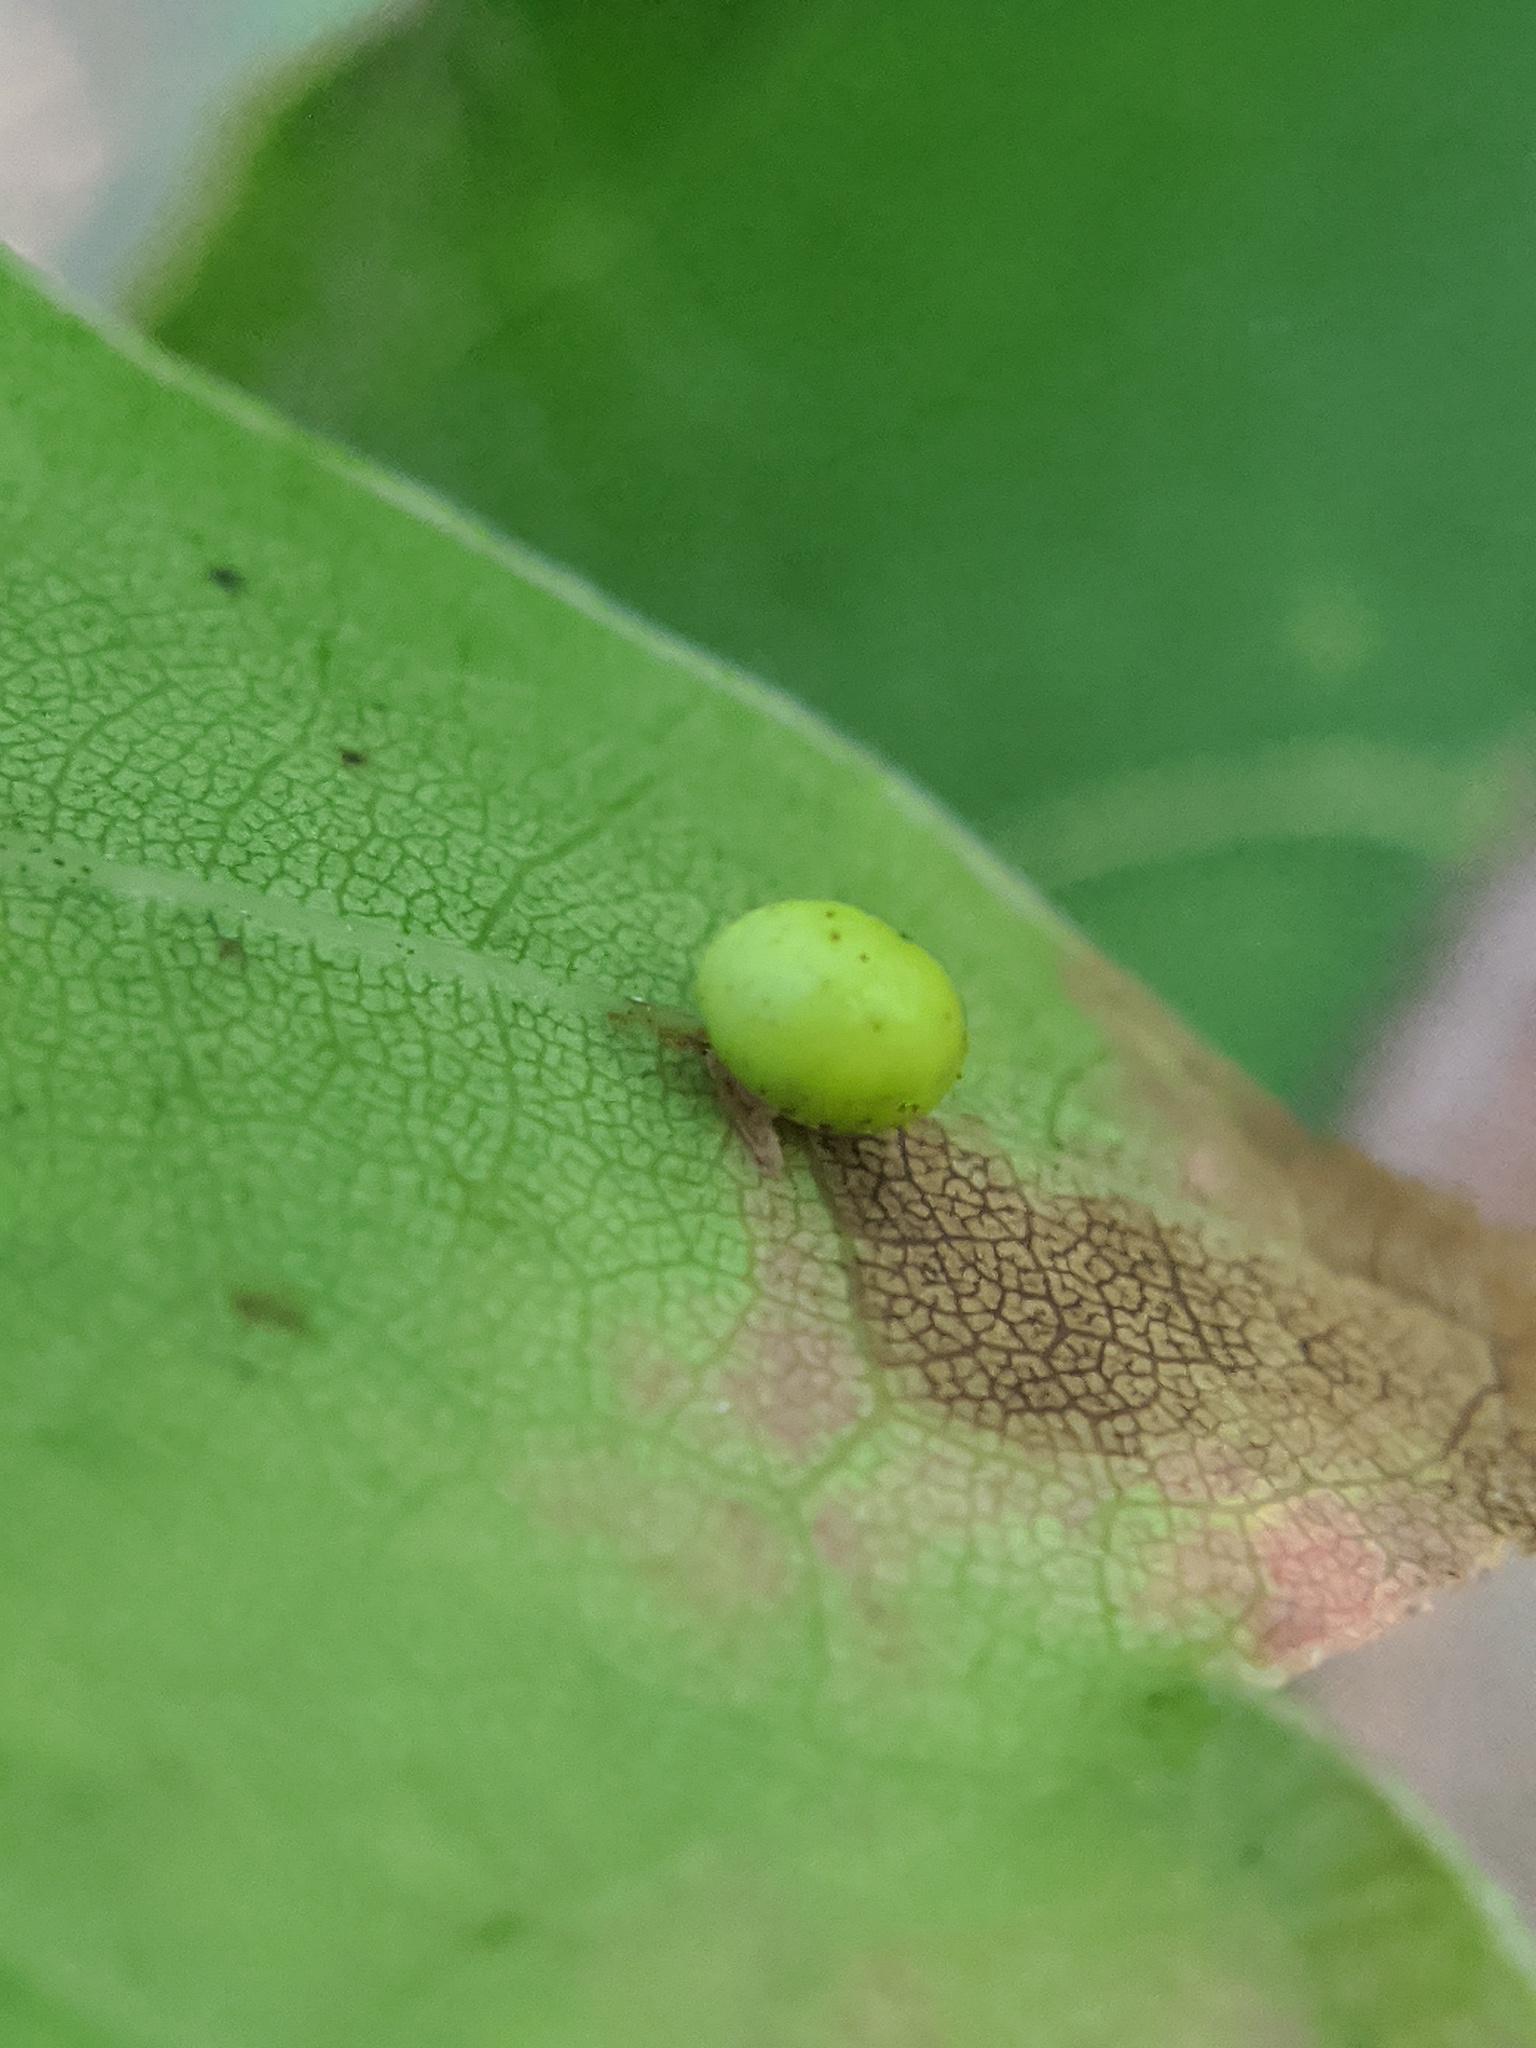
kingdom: Animalia
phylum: Arthropoda
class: Insecta
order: Hymenoptera
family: Cynipidae
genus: Kokkocynips
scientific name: Kokkocynips rileyi
